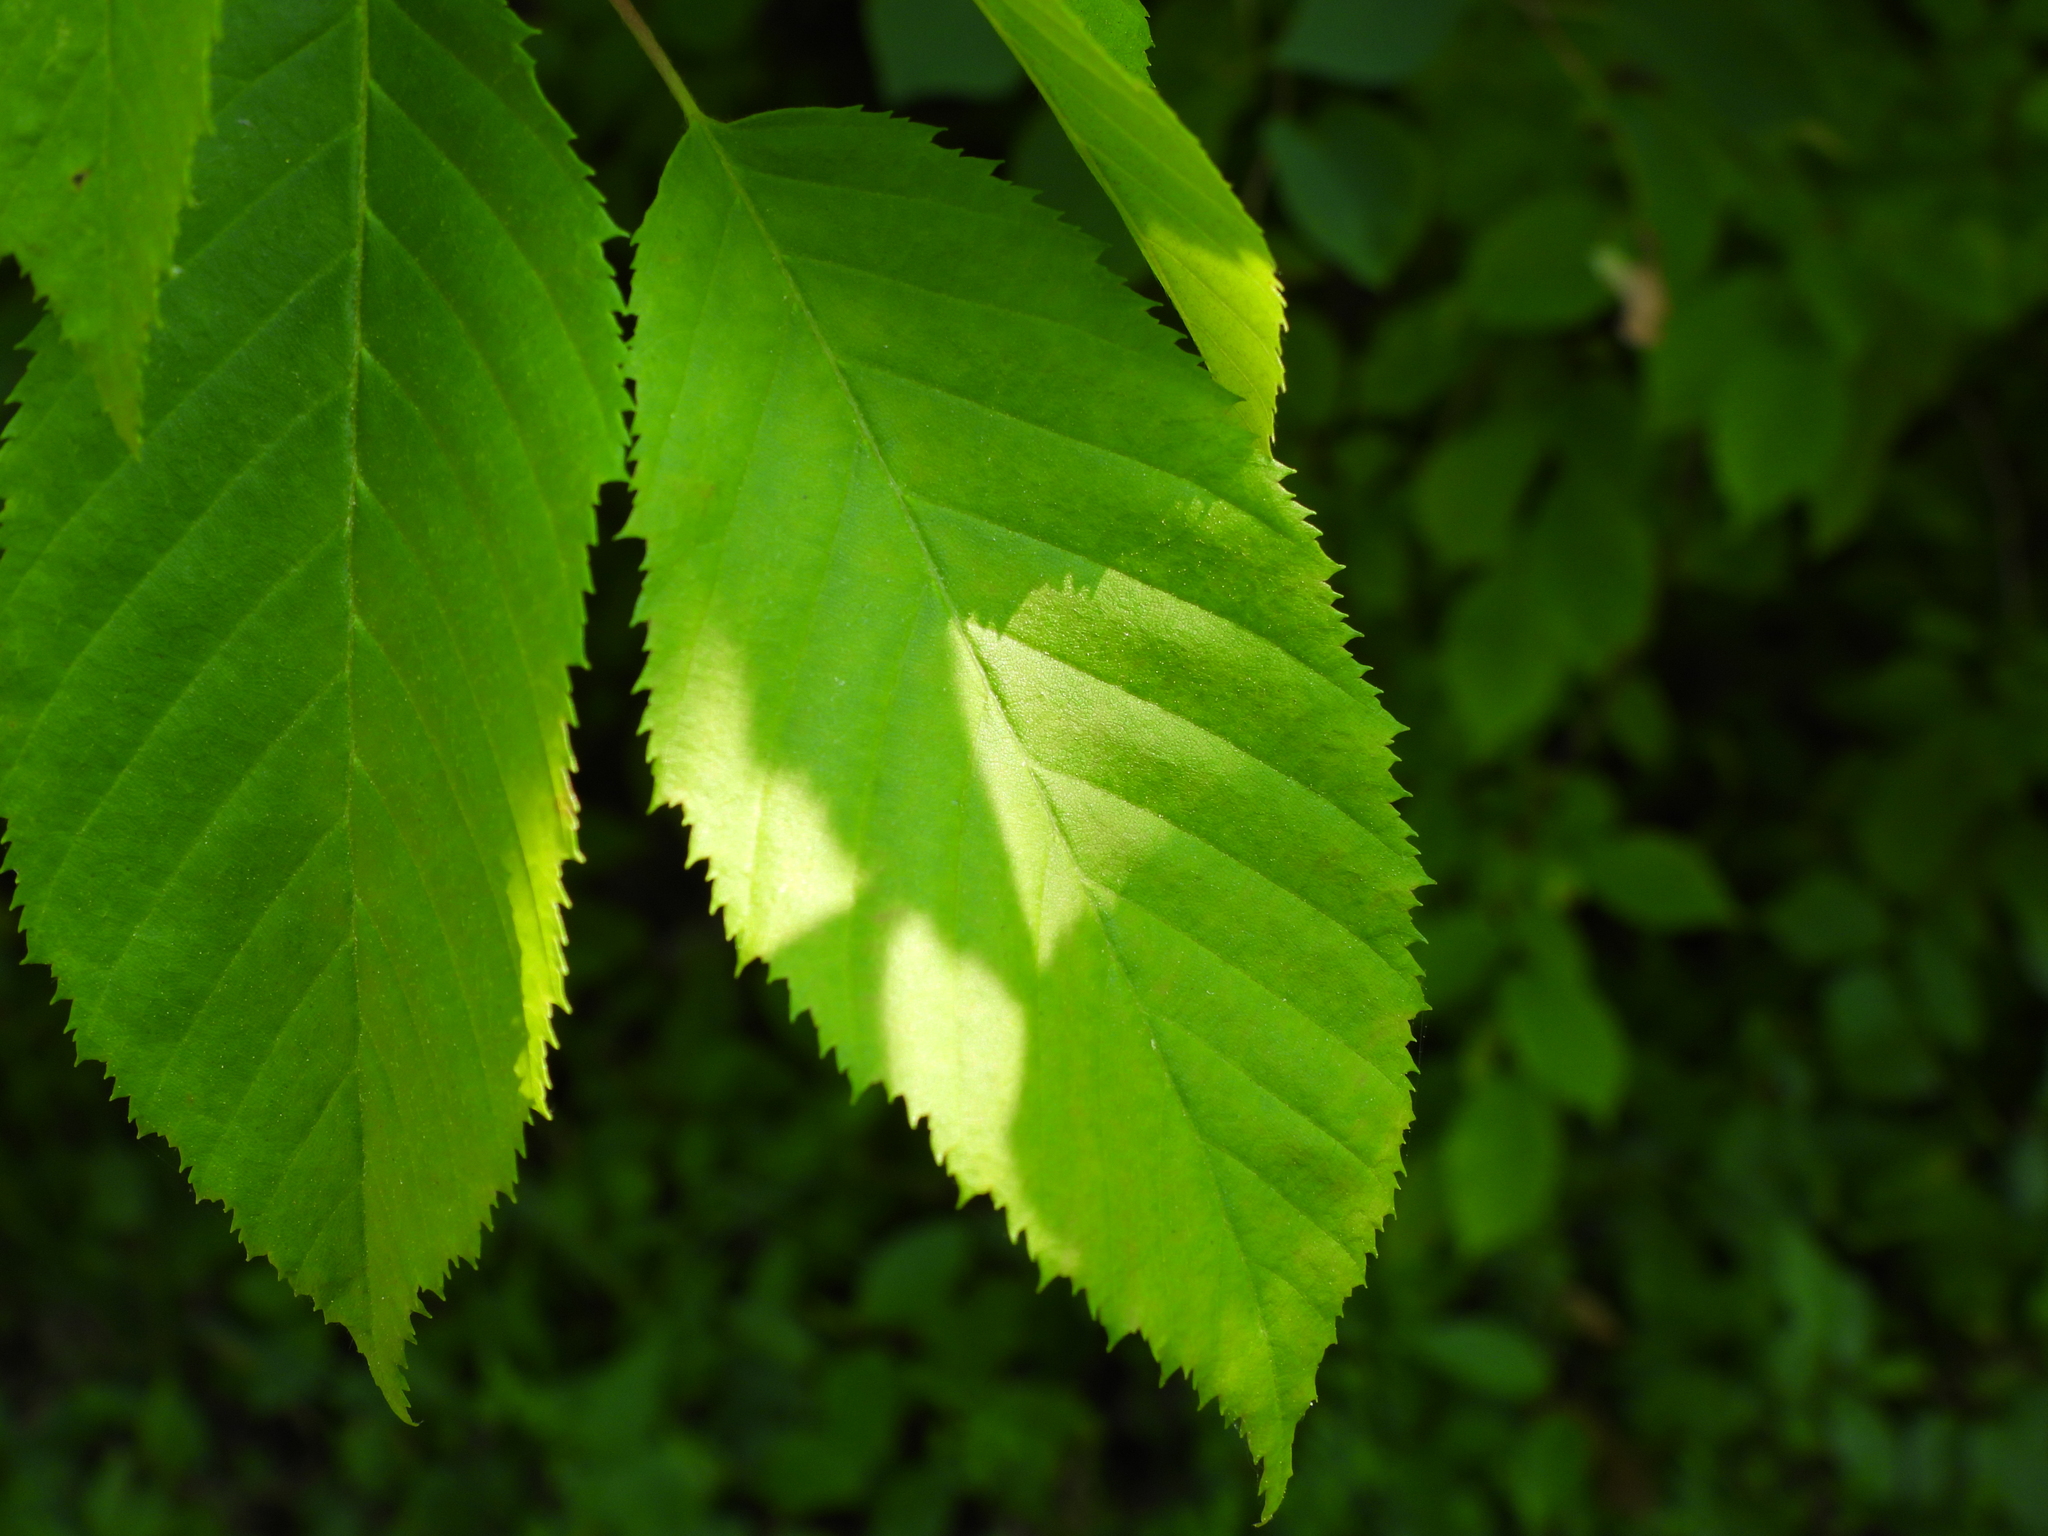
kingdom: Plantae
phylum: Tracheophyta
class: Magnoliopsida
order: Fagales
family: Betulaceae
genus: Ostrya
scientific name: Ostrya virginiana
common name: Ironwood
